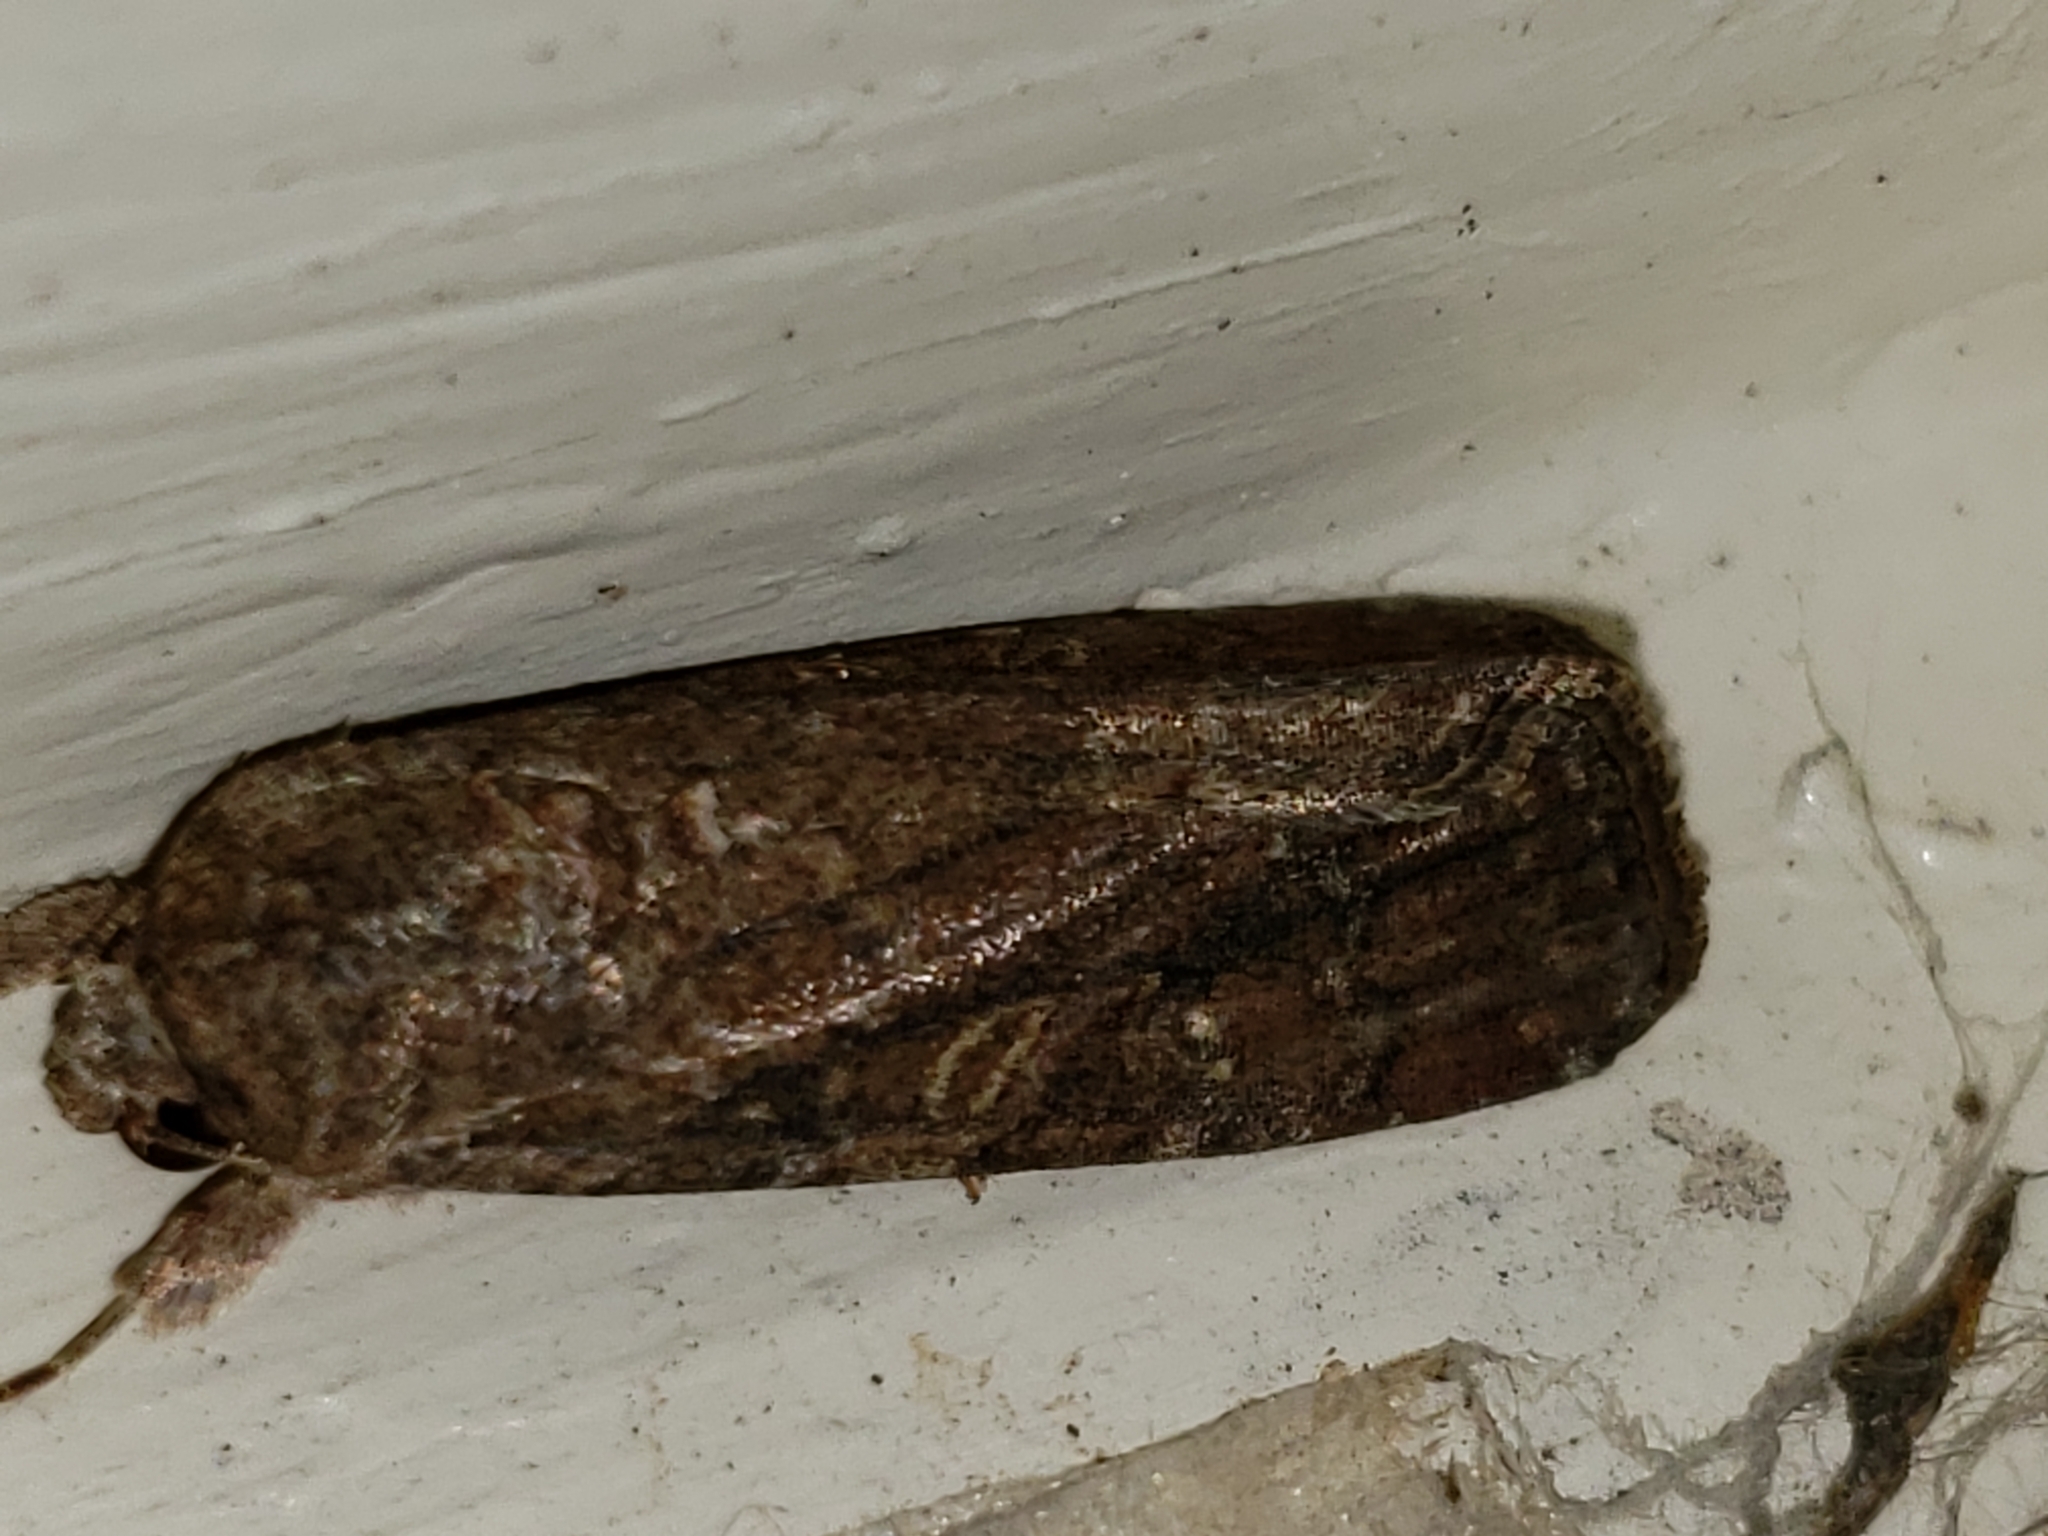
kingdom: Animalia
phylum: Arthropoda
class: Insecta
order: Lepidoptera
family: Noctuidae
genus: Spodoptera
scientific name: Spodoptera frugiperda
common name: Fall armyworm
